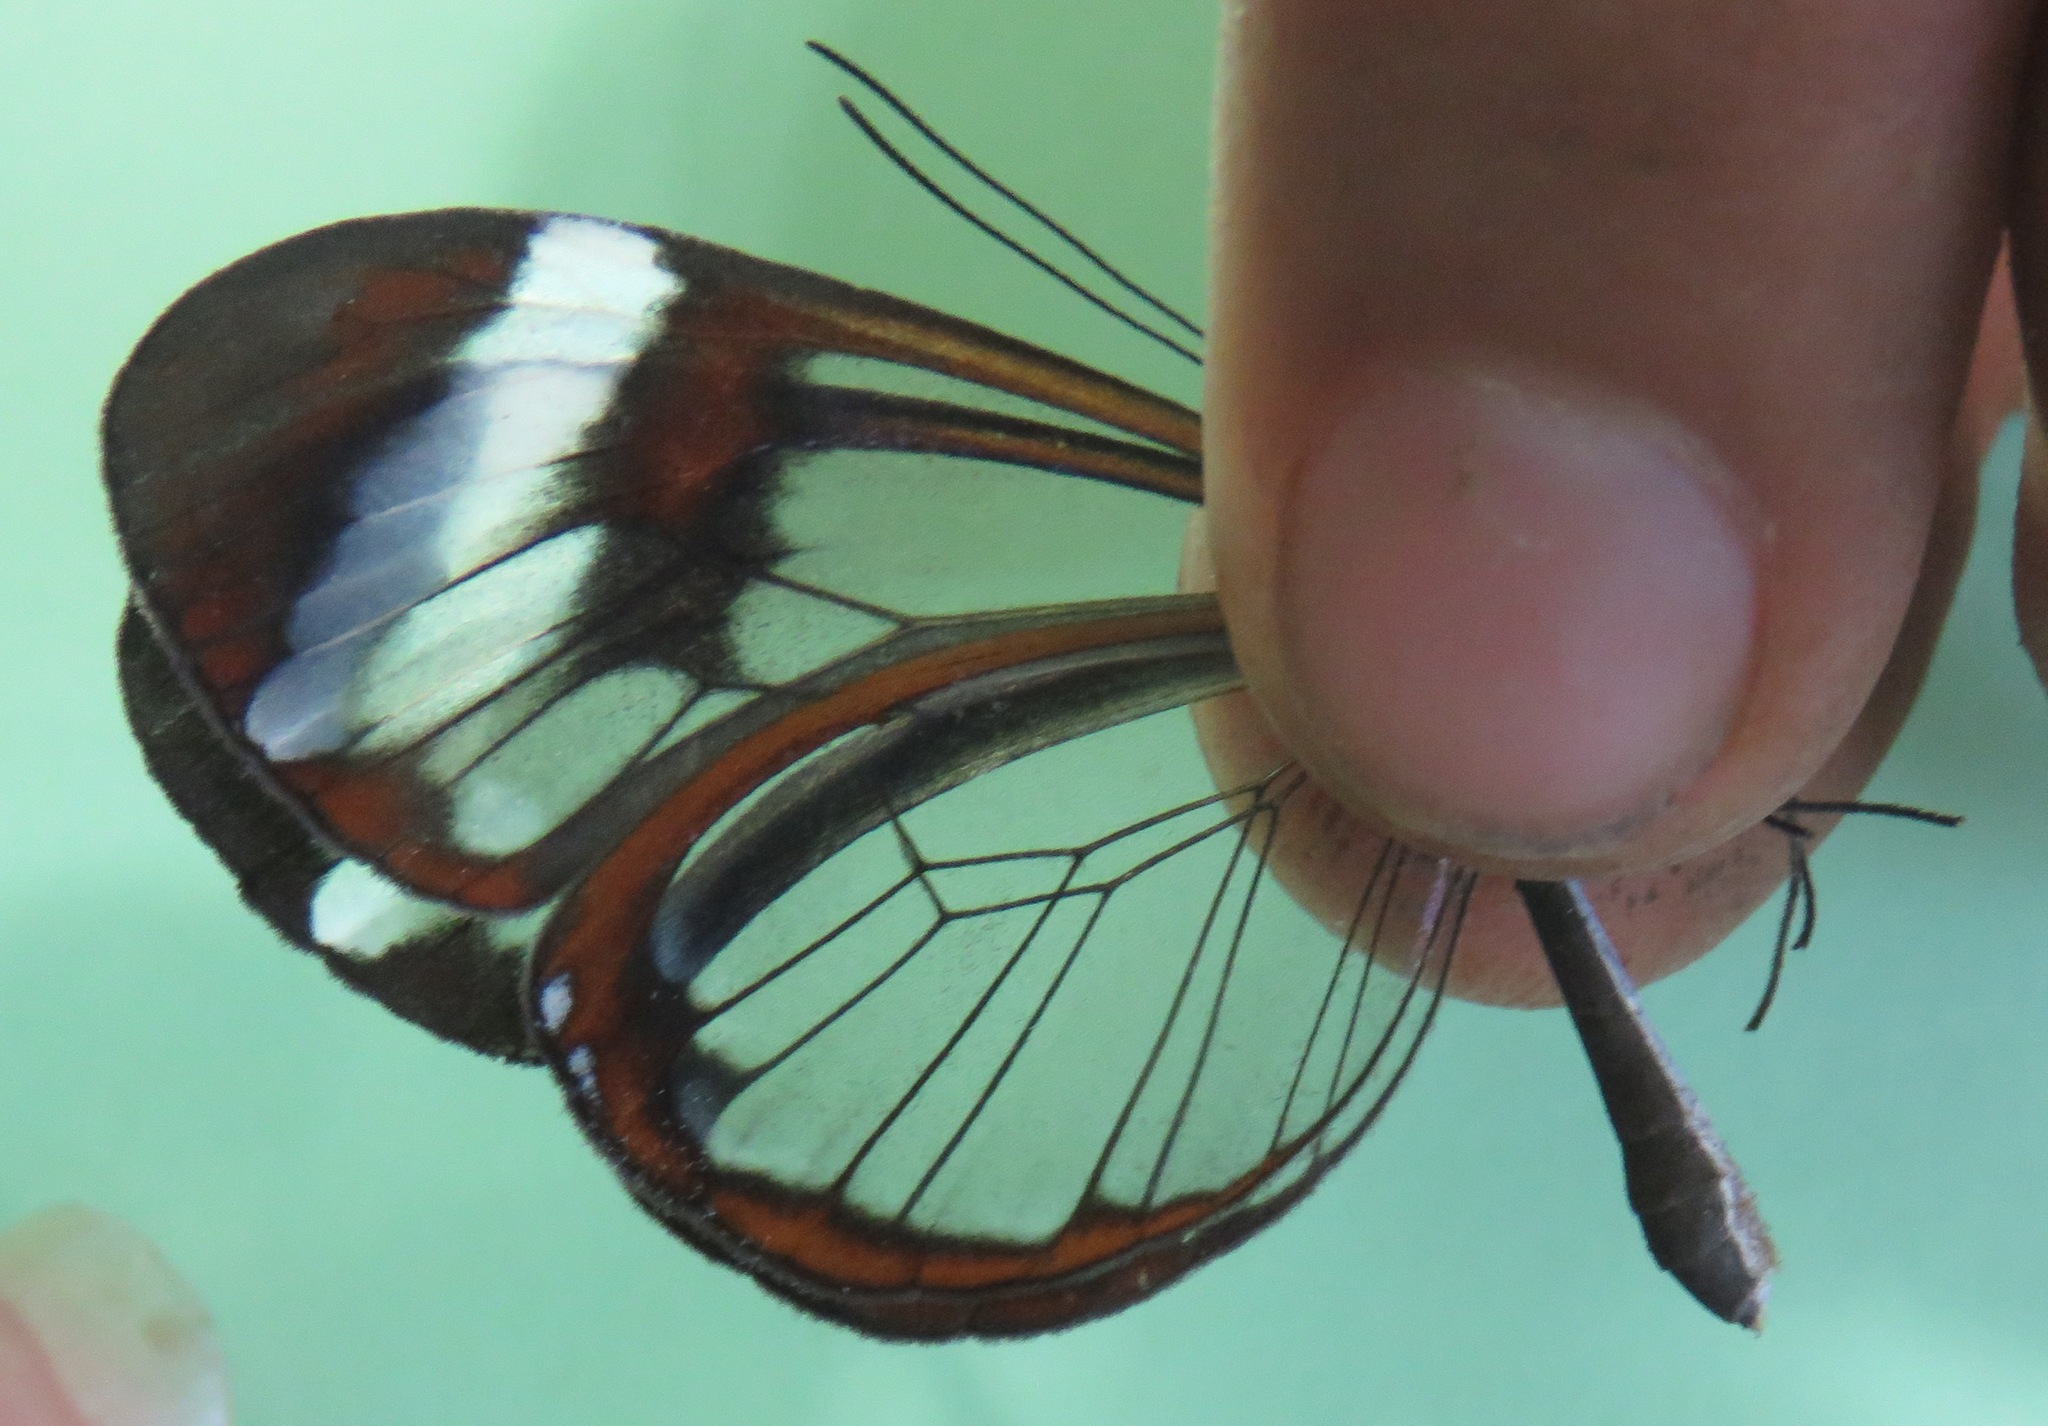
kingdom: Animalia
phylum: Arthropoda
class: Insecta
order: Lepidoptera
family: Nymphalidae
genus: Greta
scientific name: Greta morgane
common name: Thick-tipped greta
